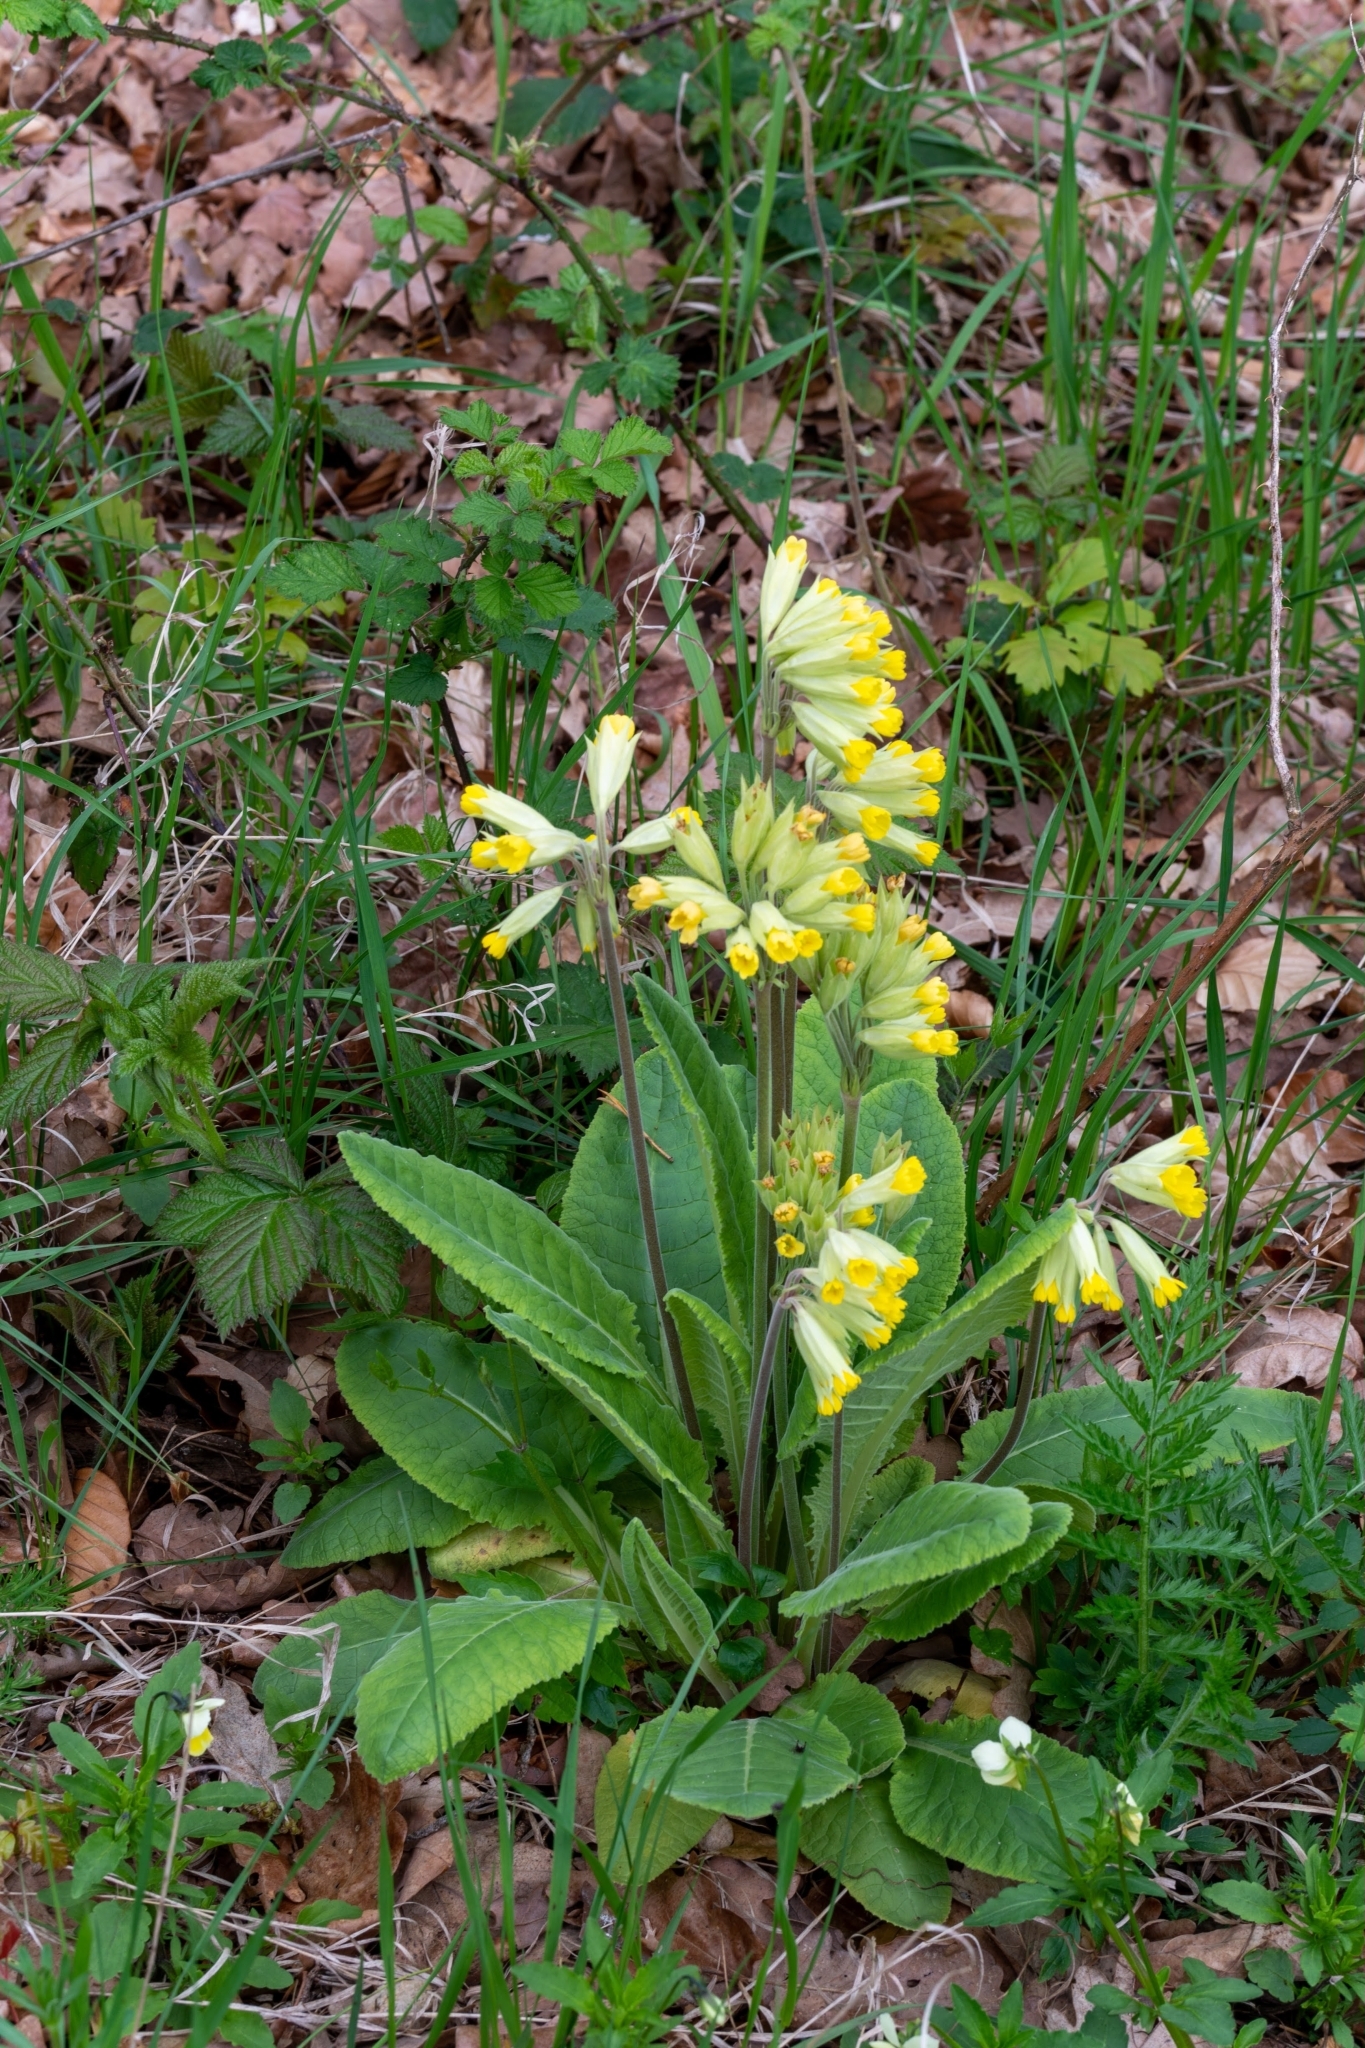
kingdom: Plantae
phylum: Tracheophyta
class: Magnoliopsida
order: Ericales
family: Primulaceae
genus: Primula
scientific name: Primula veris
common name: Cowslip
